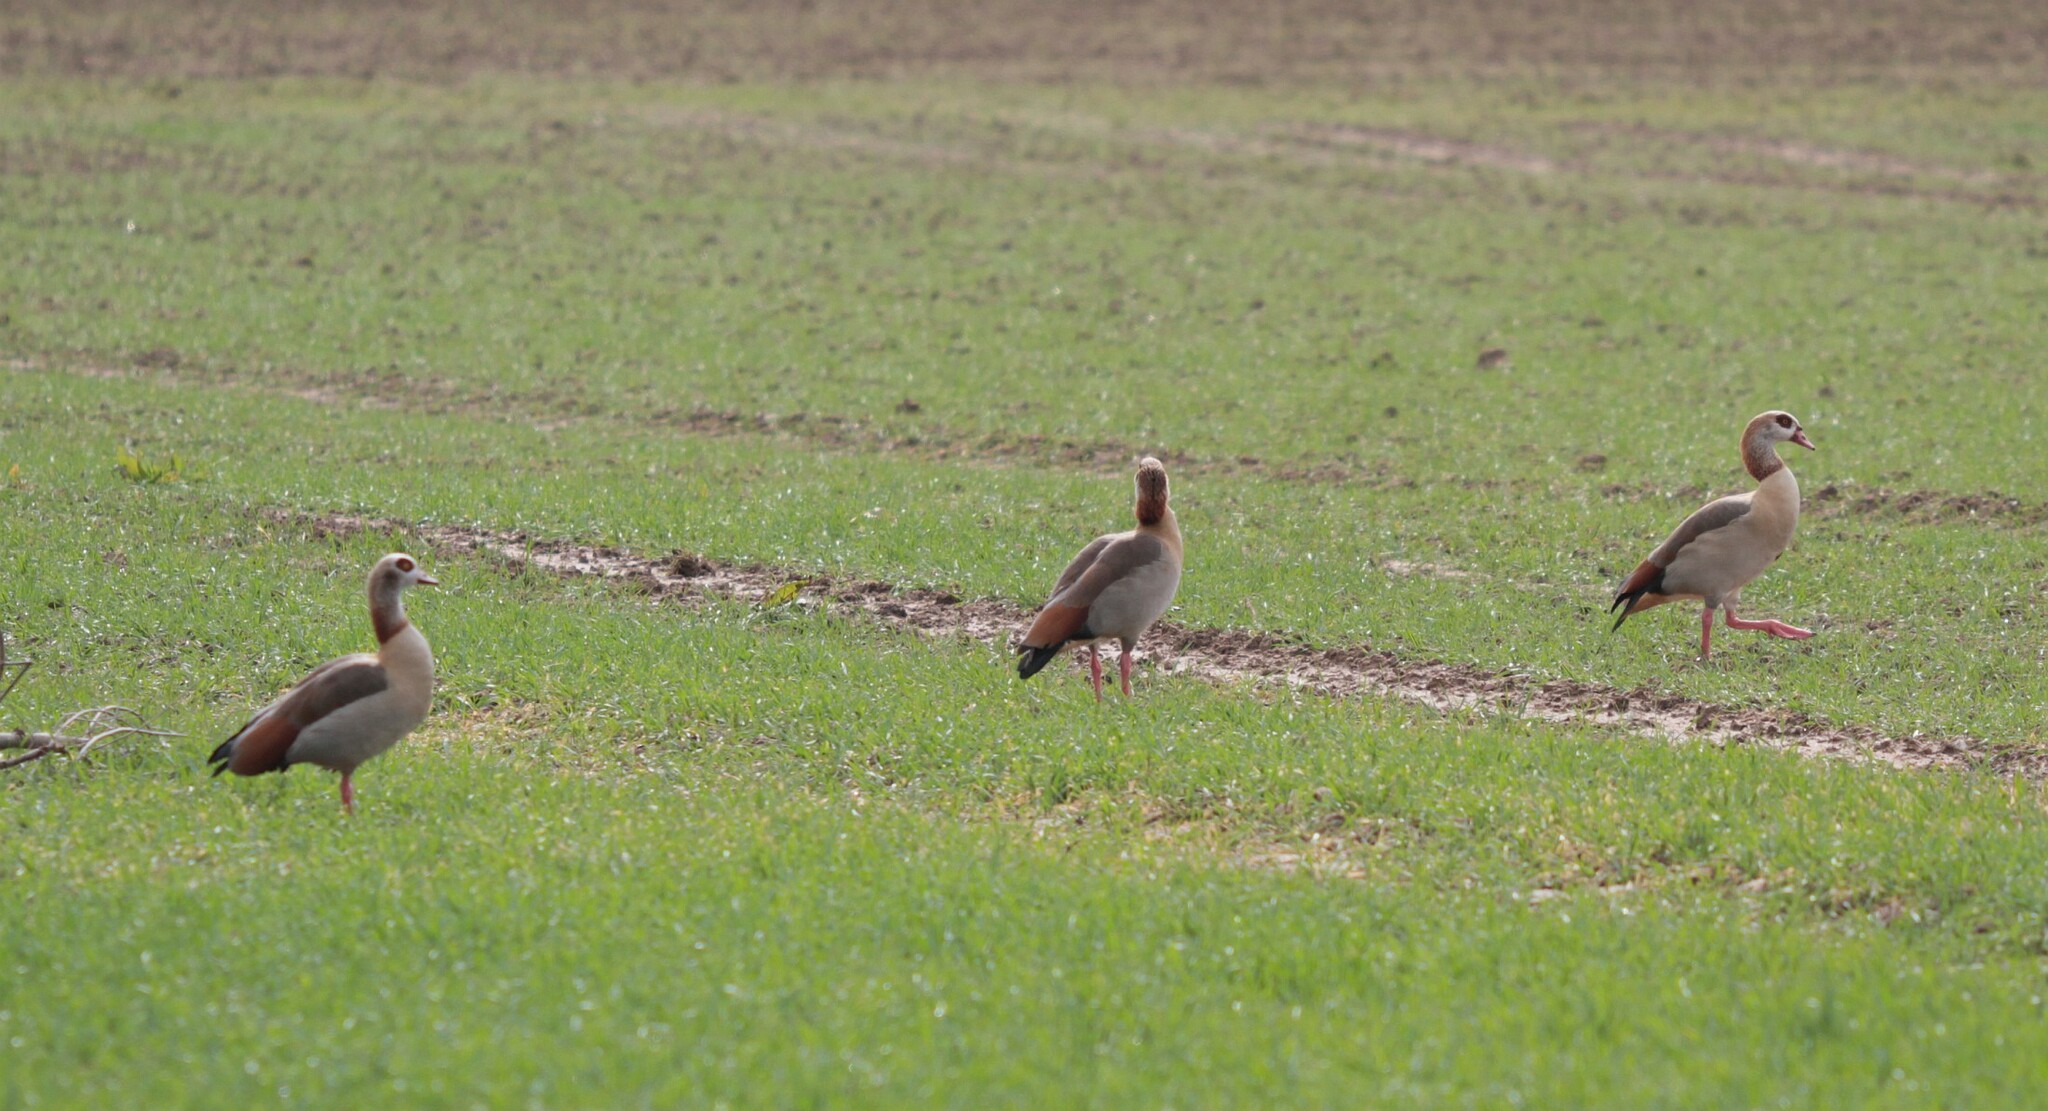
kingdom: Animalia
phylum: Chordata
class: Aves
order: Anseriformes
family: Anatidae
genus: Alopochen
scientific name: Alopochen aegyptiaca
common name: Egyptian goose
